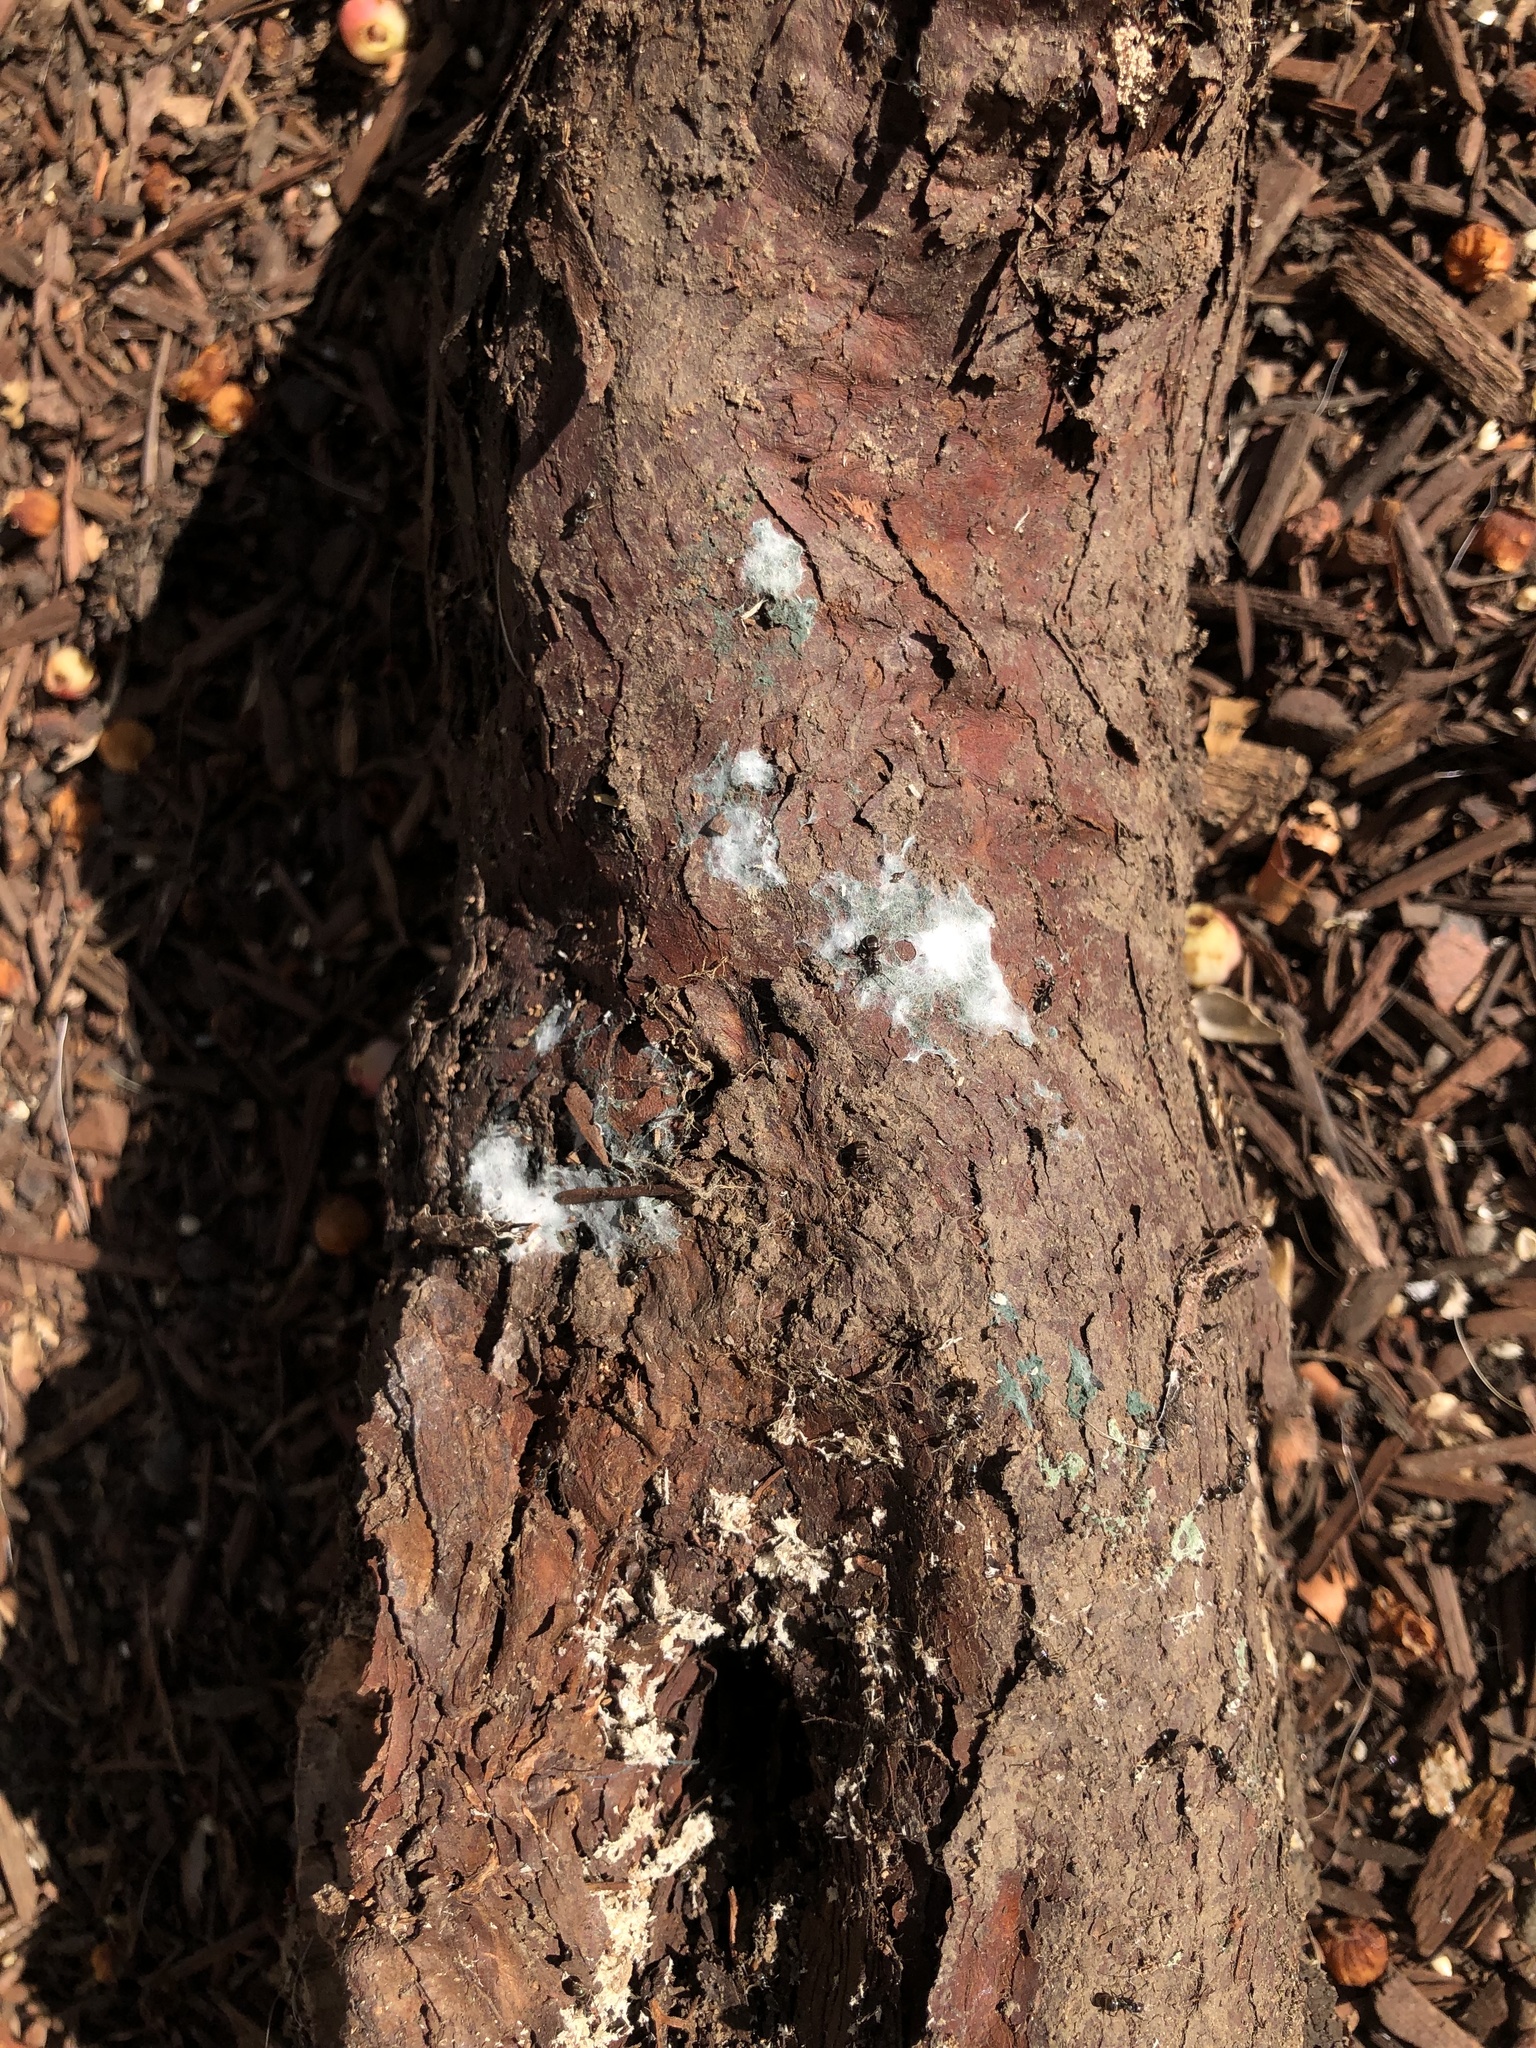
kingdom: Animalia
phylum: Arthropoda
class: Insecta
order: Hymenoptera
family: Formicidae
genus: Tapinoma
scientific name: Tapinoma sessile
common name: Odorous house ant
